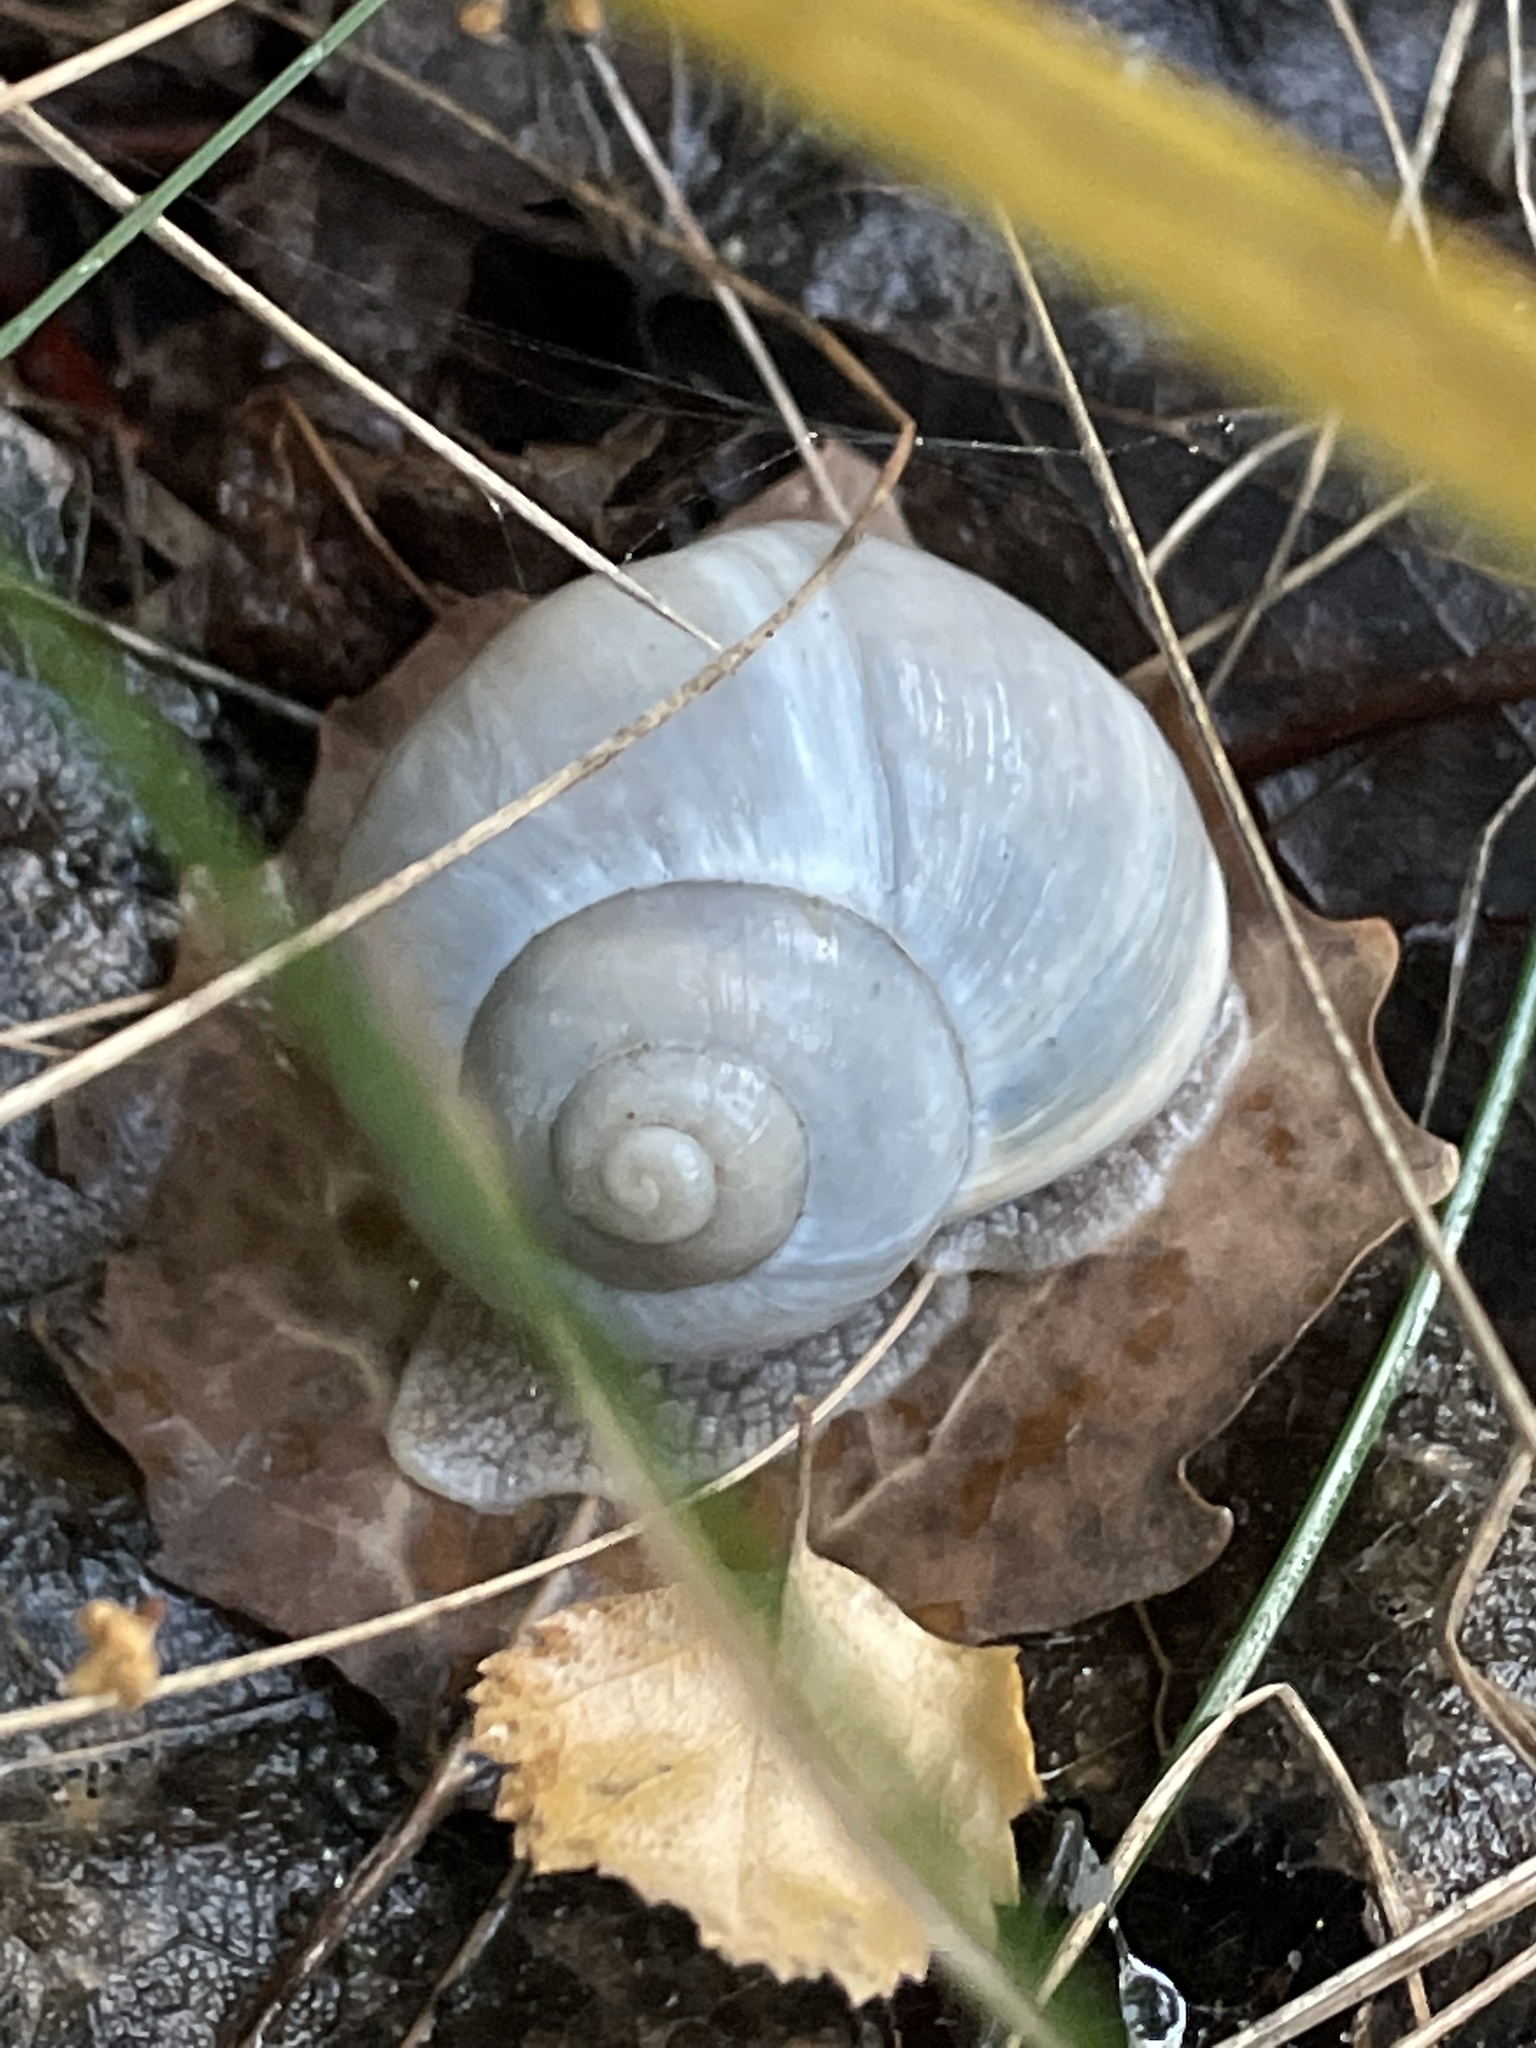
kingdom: Animalia
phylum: Mollusca
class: Gastropoda
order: Stylommatophora
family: Helicidae
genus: Helix
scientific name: Helix lutescens
